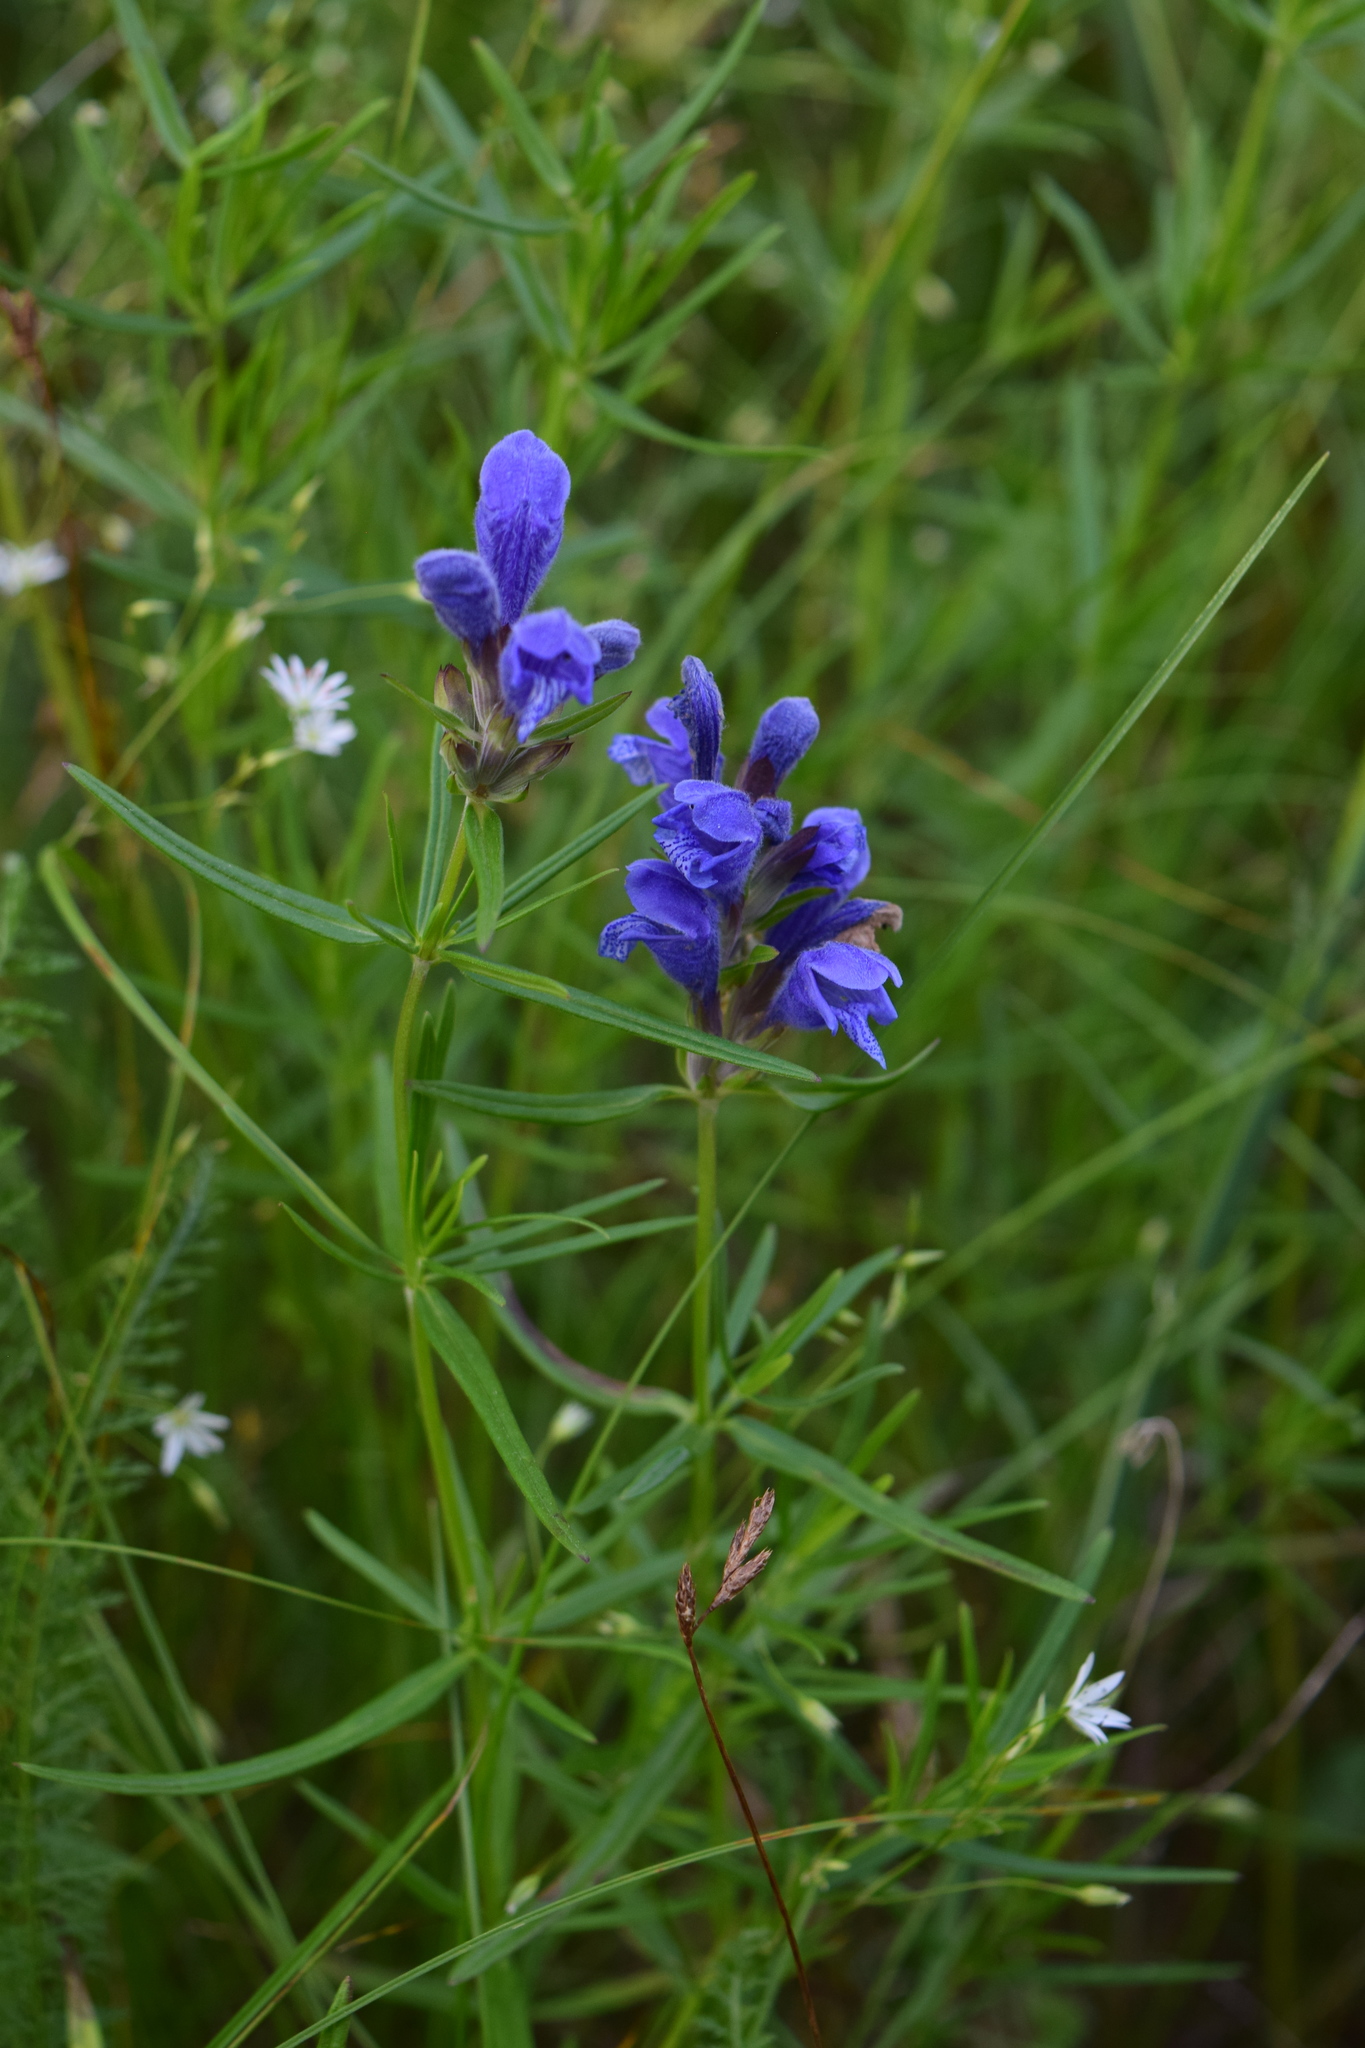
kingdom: Plantae
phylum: Tracheophyta
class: Magnoliopsida
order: Lamiales
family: Lamiaceae
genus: Dracocephalum
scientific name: Dracocephalum ruyschiana
